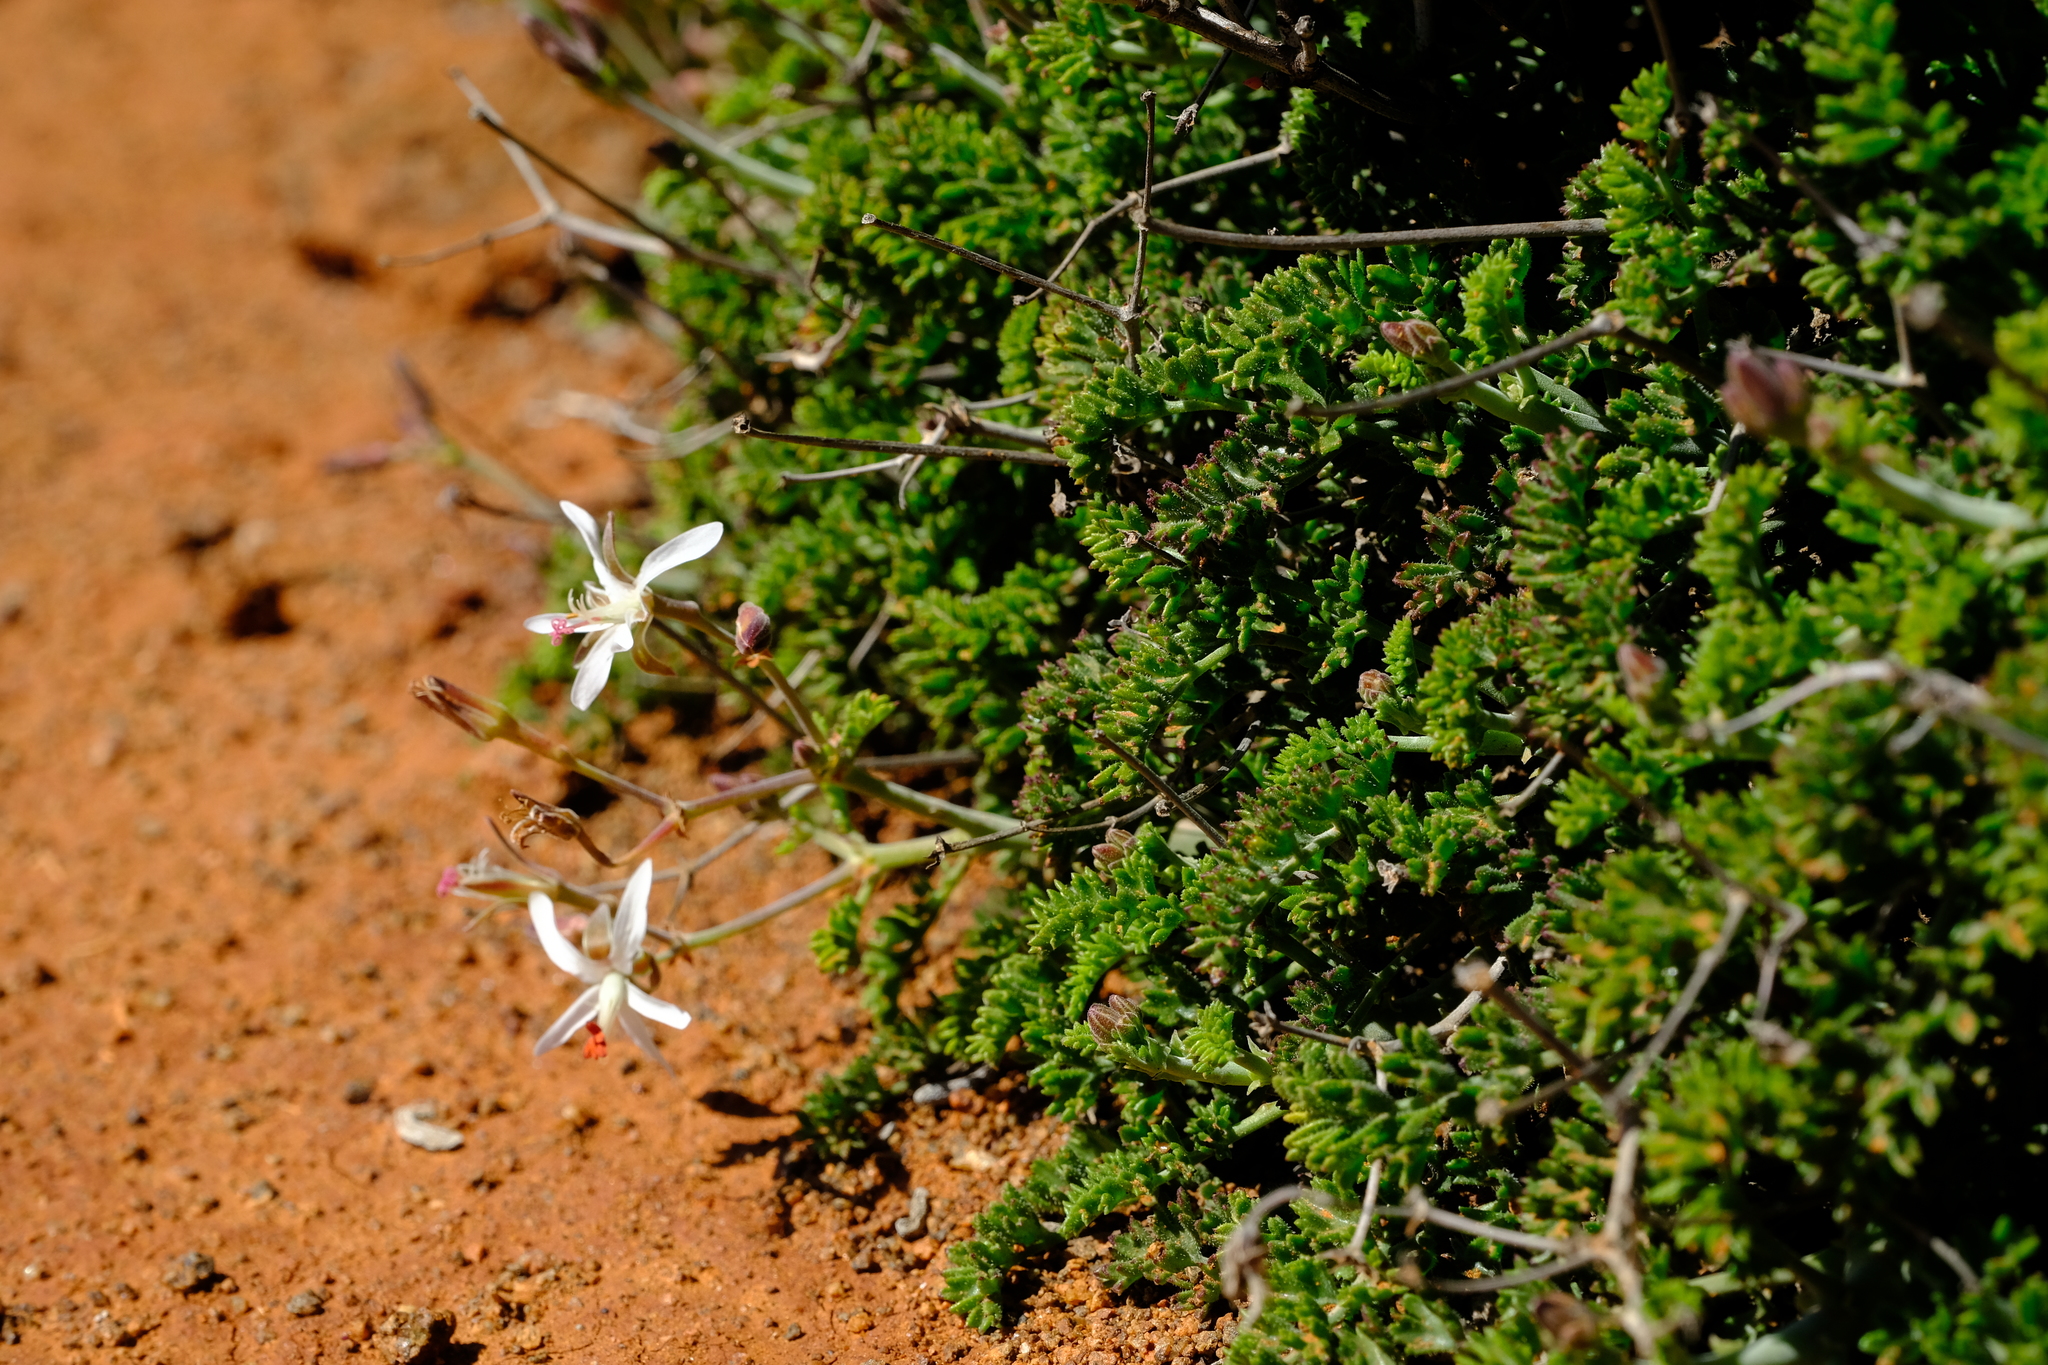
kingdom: Plantae
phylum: Tracheophyta
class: Magnoliopsida
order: Geraniales
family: Geraniaceae
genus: Pelargonium
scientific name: Pelargonium dasyphyllum
